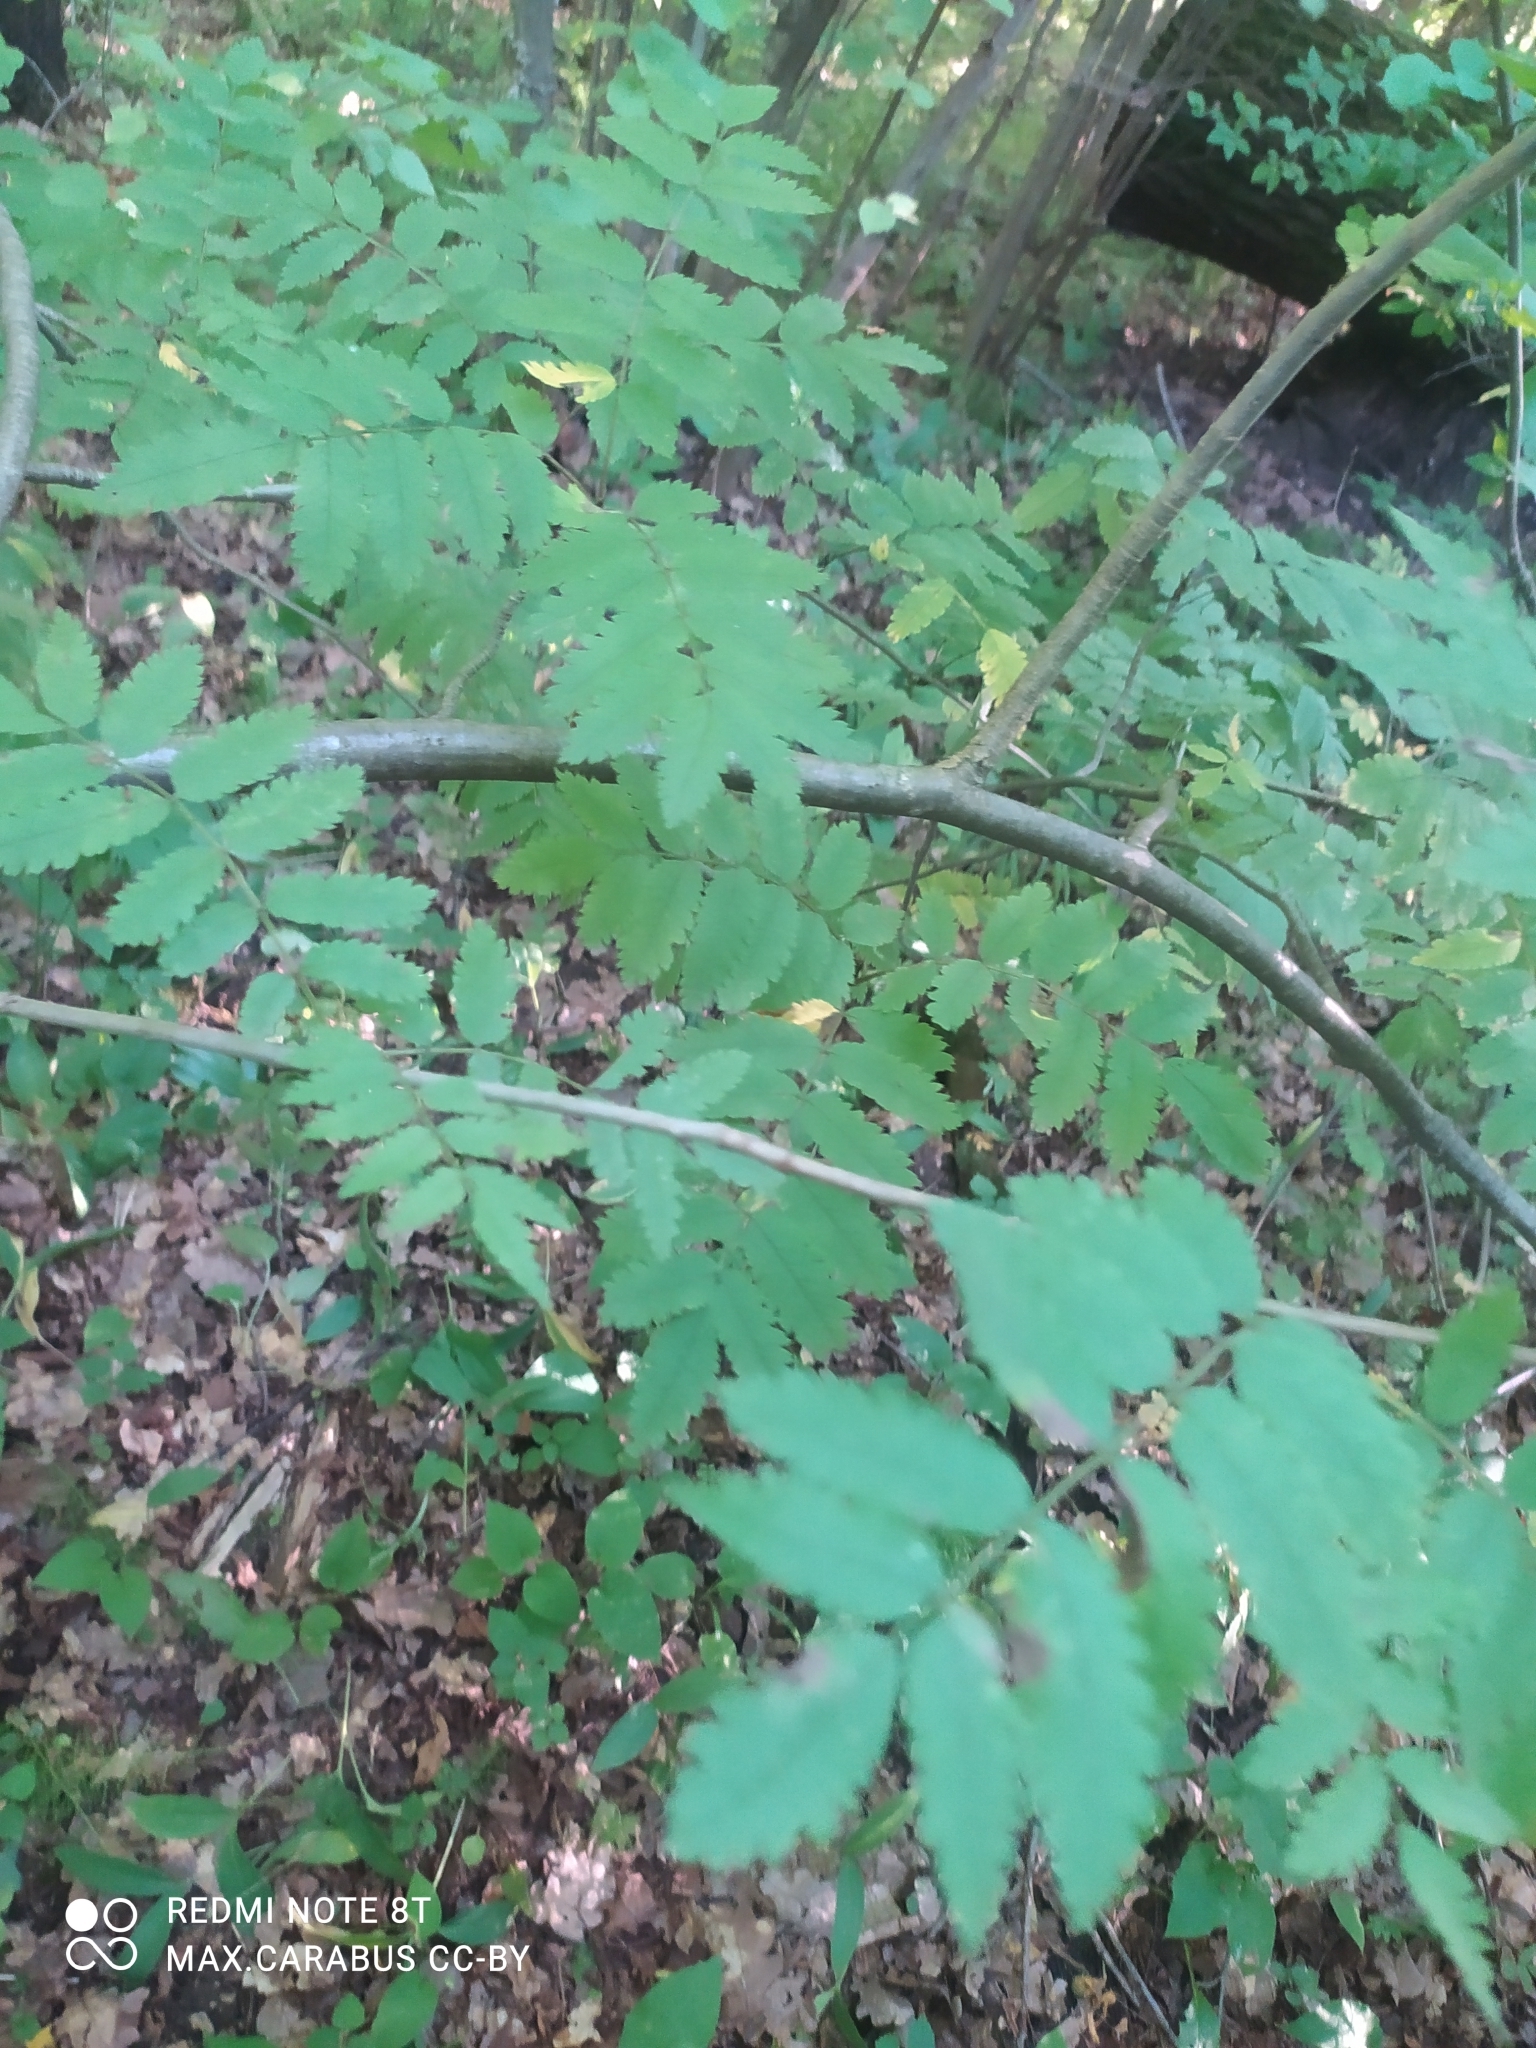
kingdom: Plantae
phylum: Tracheophyta
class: Magnoliopsida
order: Rosales
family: Rosaceae
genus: Sorbus
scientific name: Sorbus aucuparia
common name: Rowan
